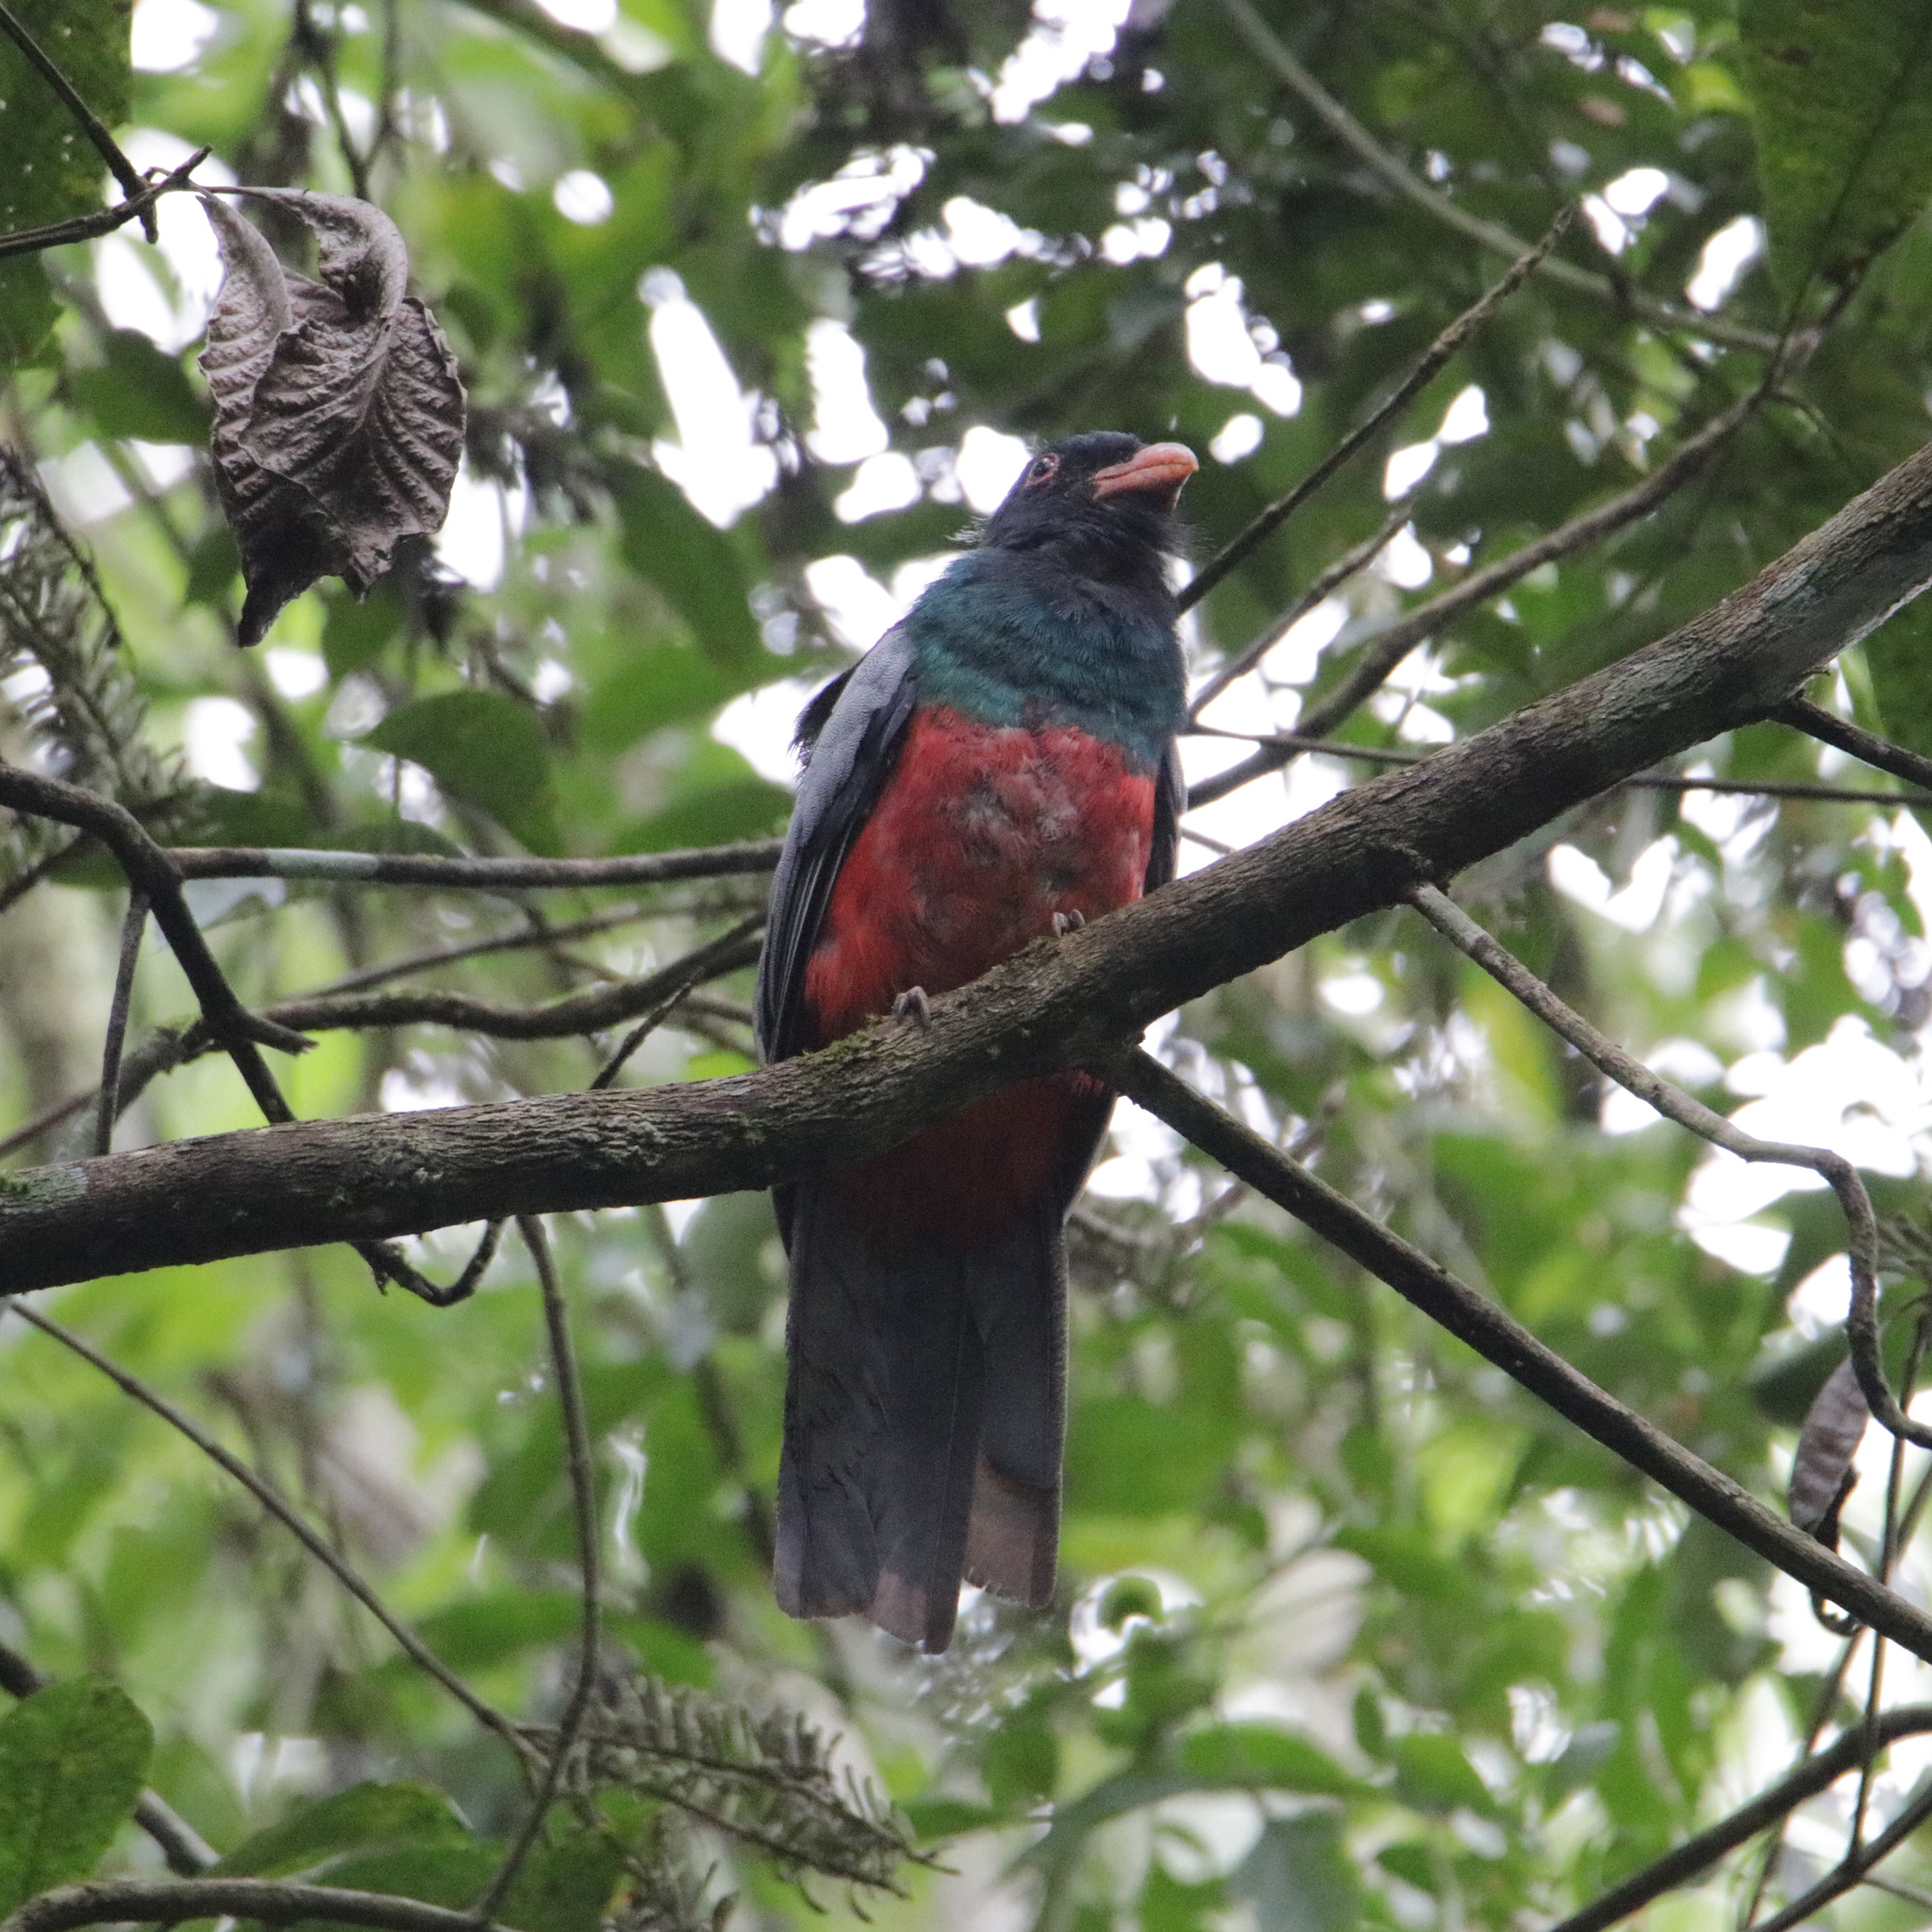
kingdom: Animalia
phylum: Chordata
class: Aves
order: Trogoniformes
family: Trogonidae
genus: Trogon
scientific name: Trogon massena
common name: Slaty-tailed trogon
